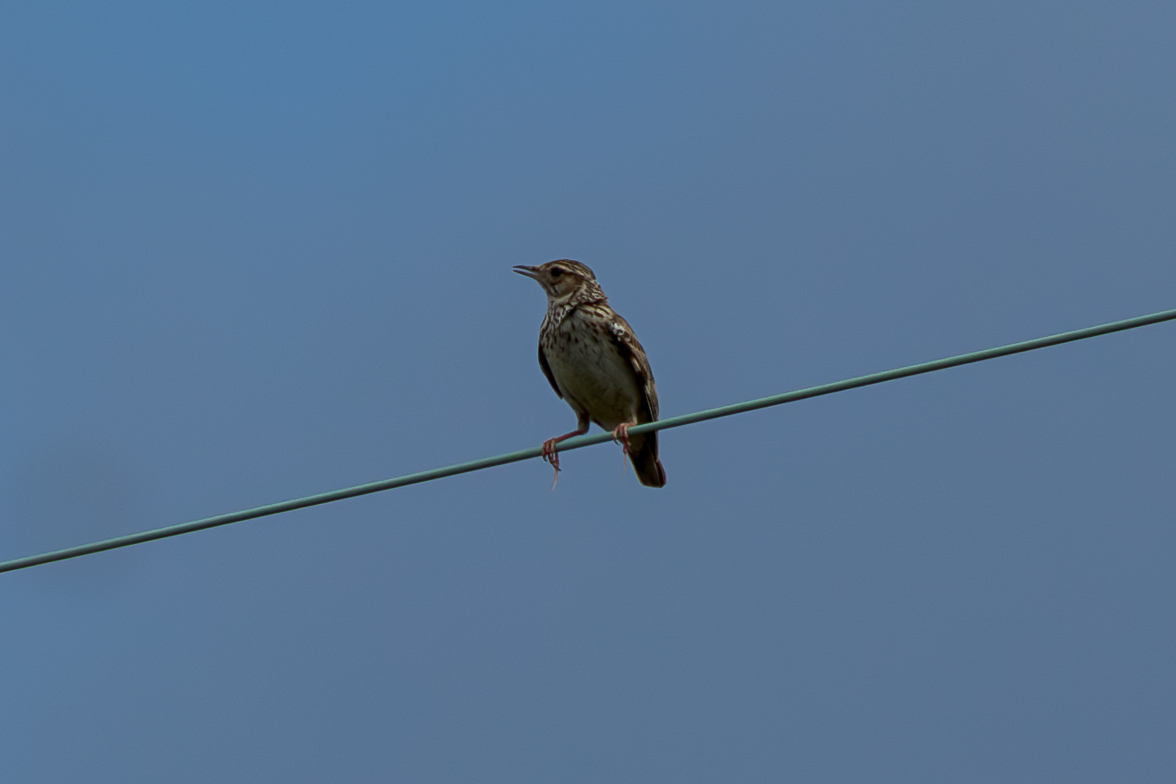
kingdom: Animalia
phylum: Chordata
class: Aves
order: Passeriformes
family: Alaudidae
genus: Lullula
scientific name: Lullula arborea
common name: Woodlark
